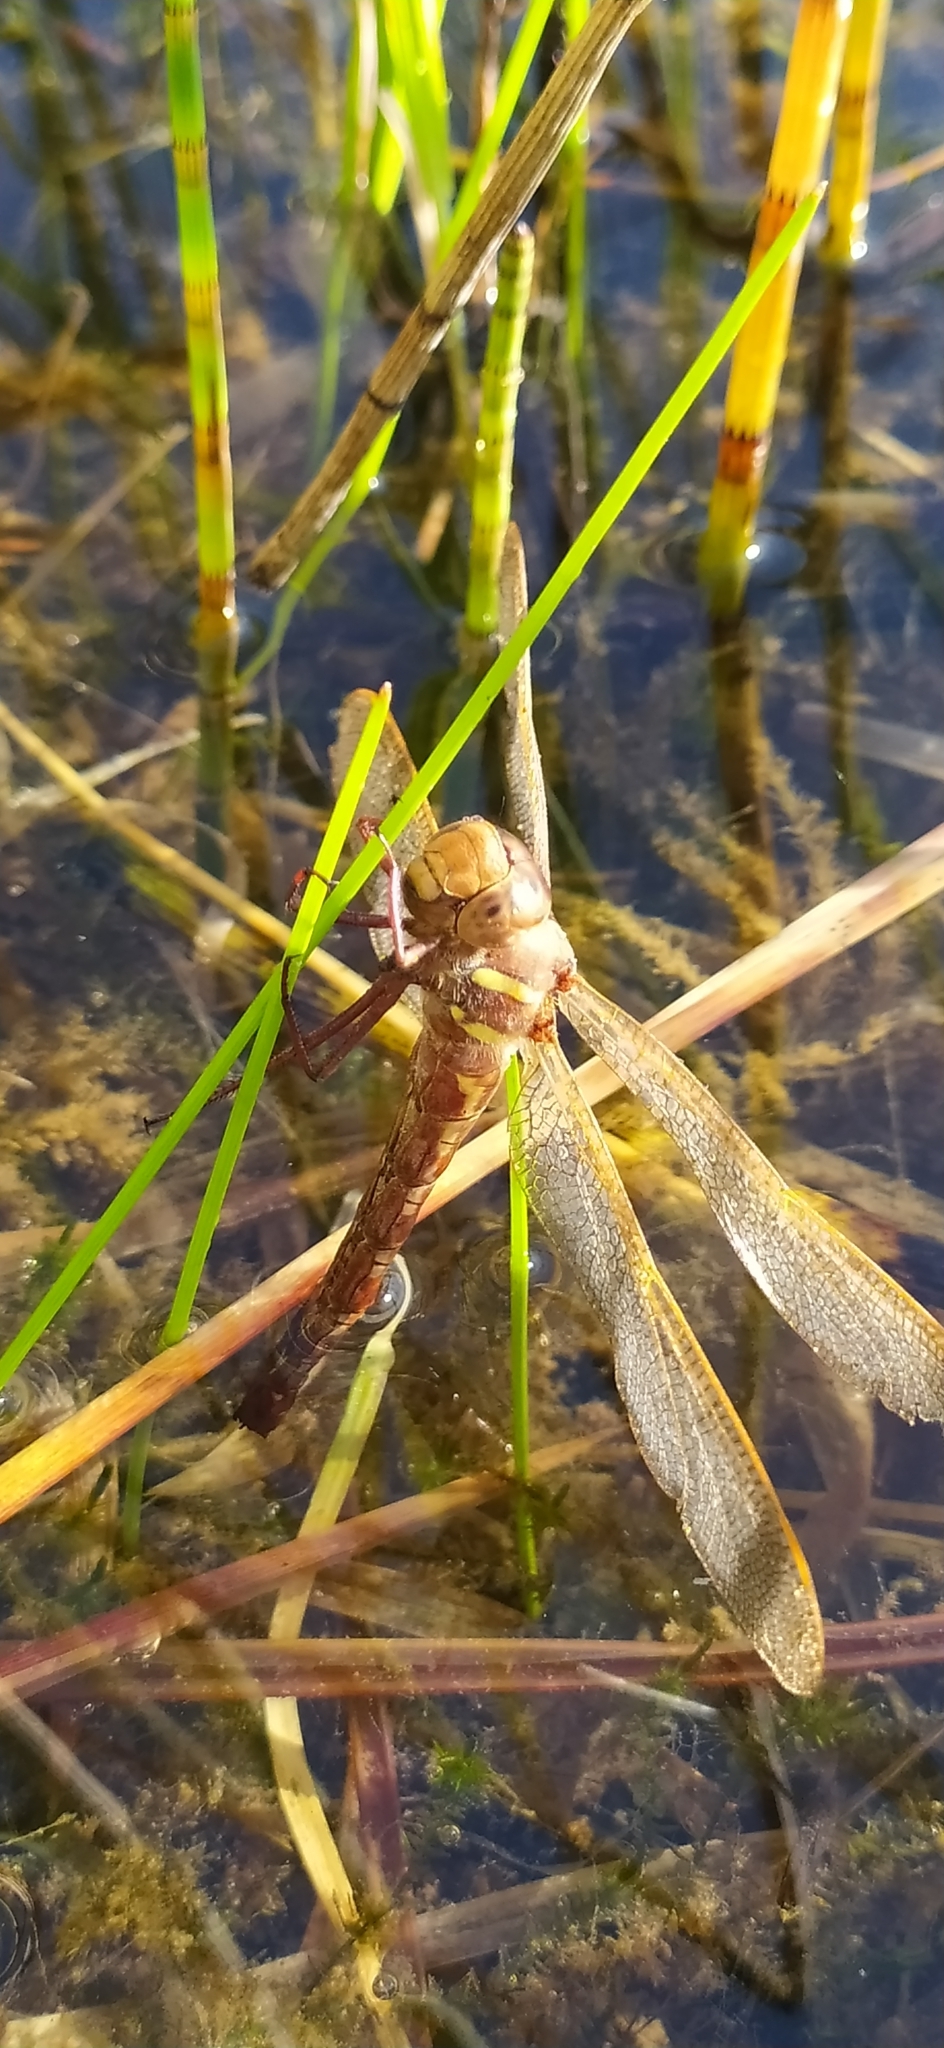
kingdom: Animalia
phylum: Arthropoda
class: Insecta
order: Odonata
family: Aeshnidae
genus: Aeshna
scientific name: Aeshna grandis
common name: Brown hawker
